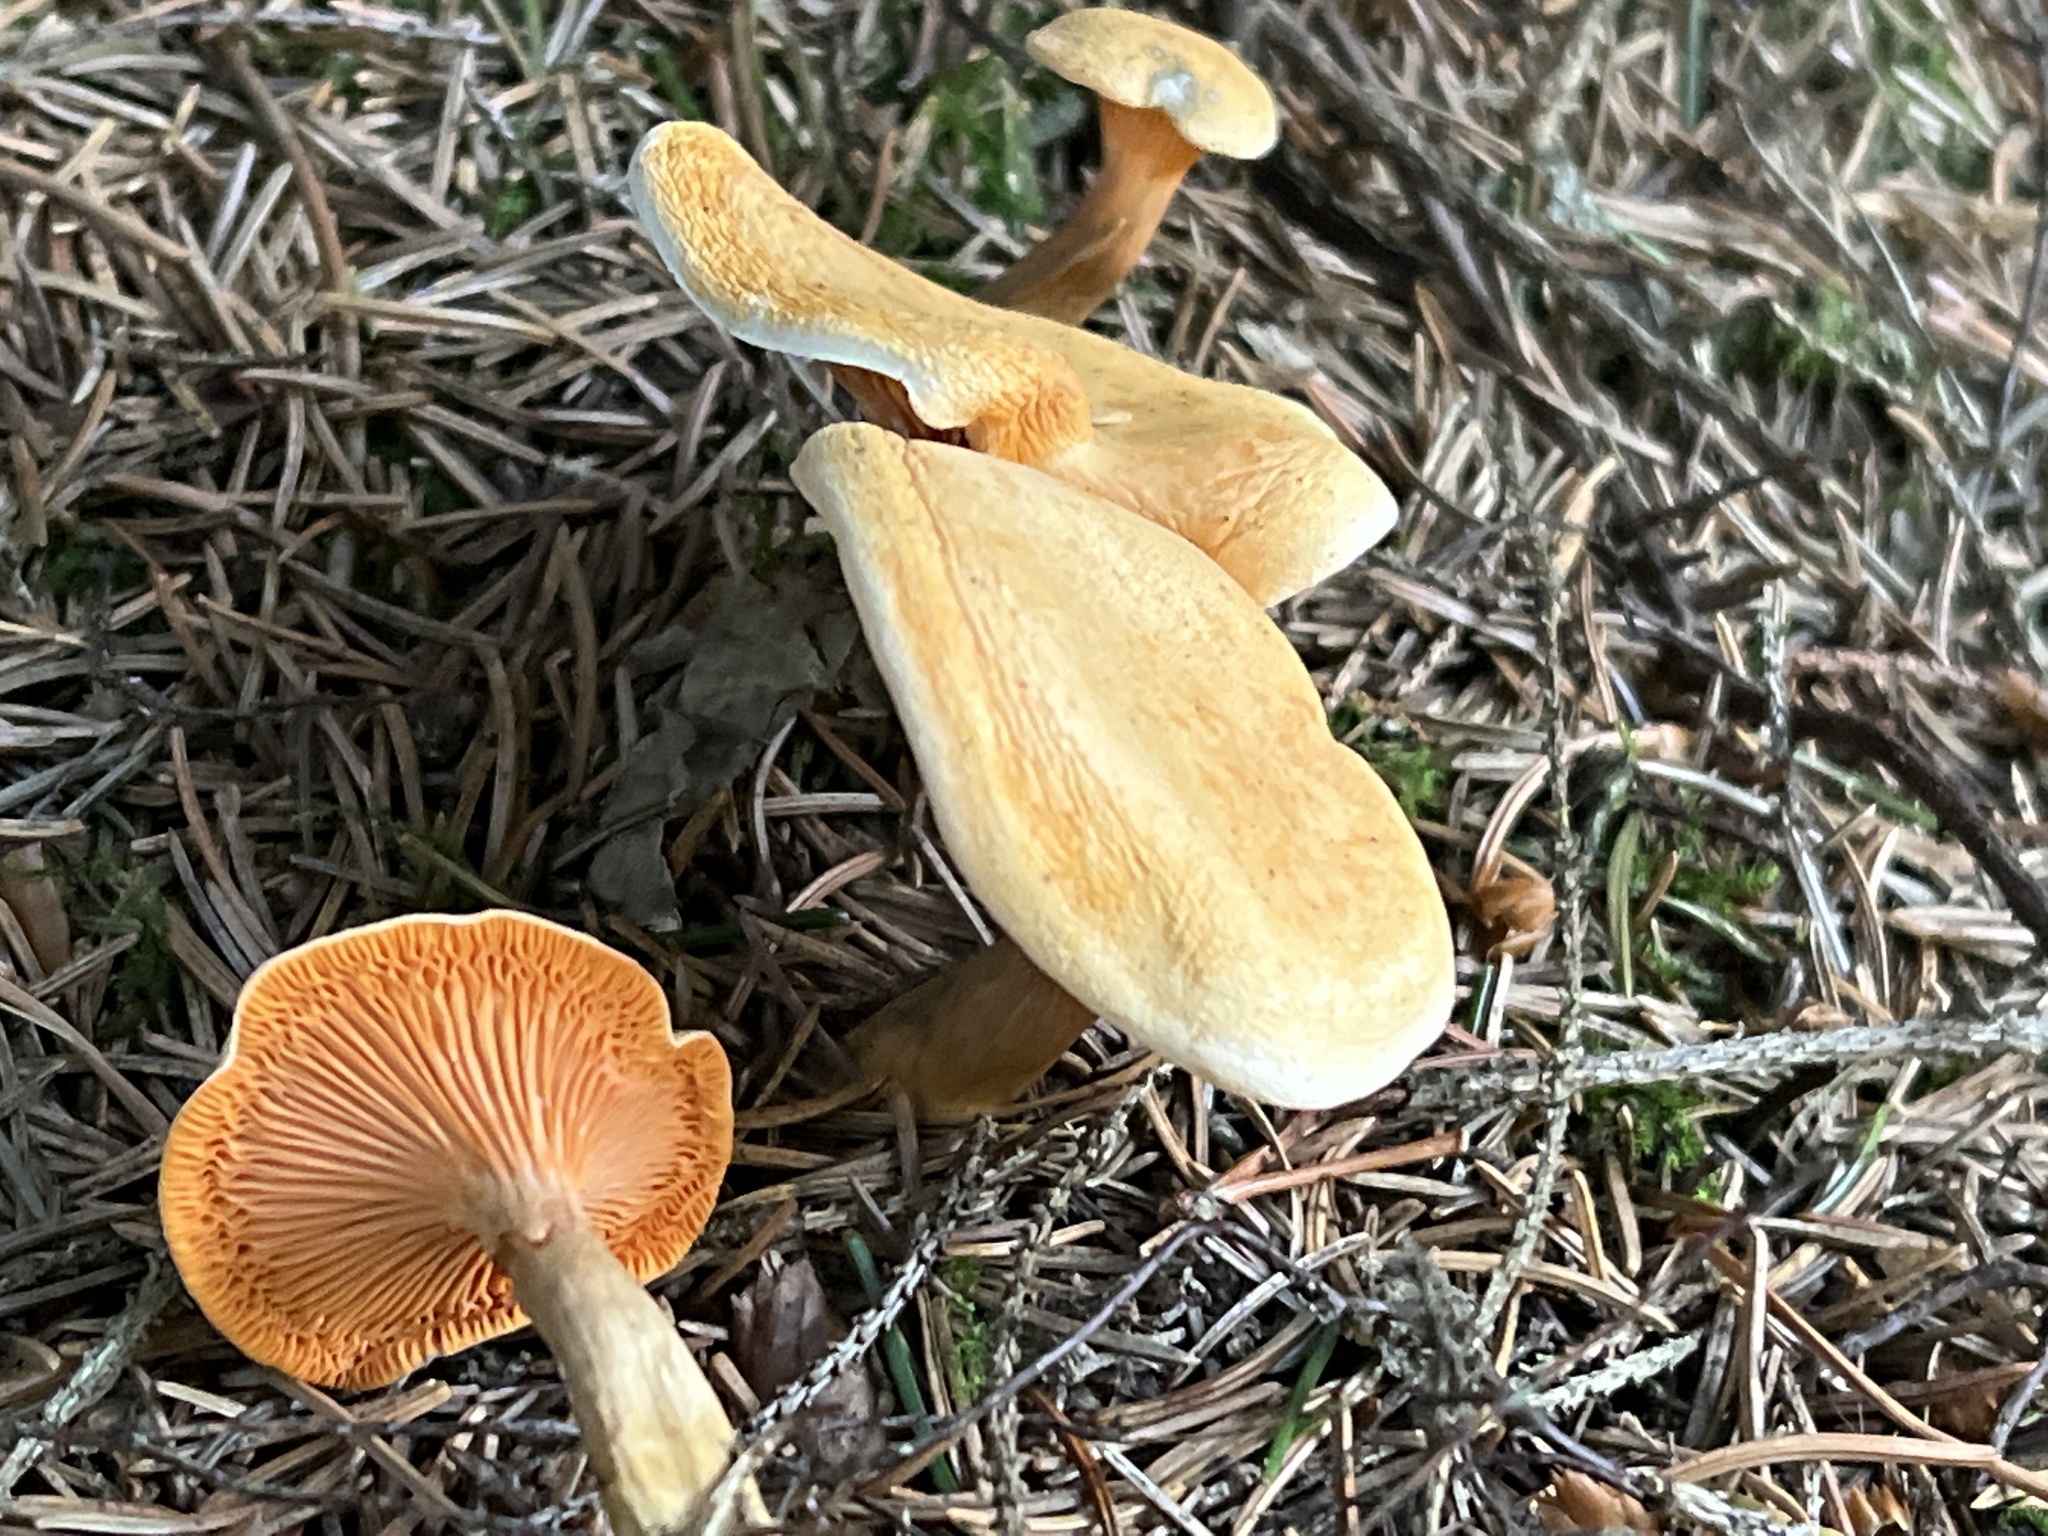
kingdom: Fungi
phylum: Basidiomycota
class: Agaricomycetes
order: Boletales
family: Hygrophoropsidaceae
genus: Hygrophoropsis
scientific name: Hygrophoropsis aurantiaca
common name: False chanterelle
